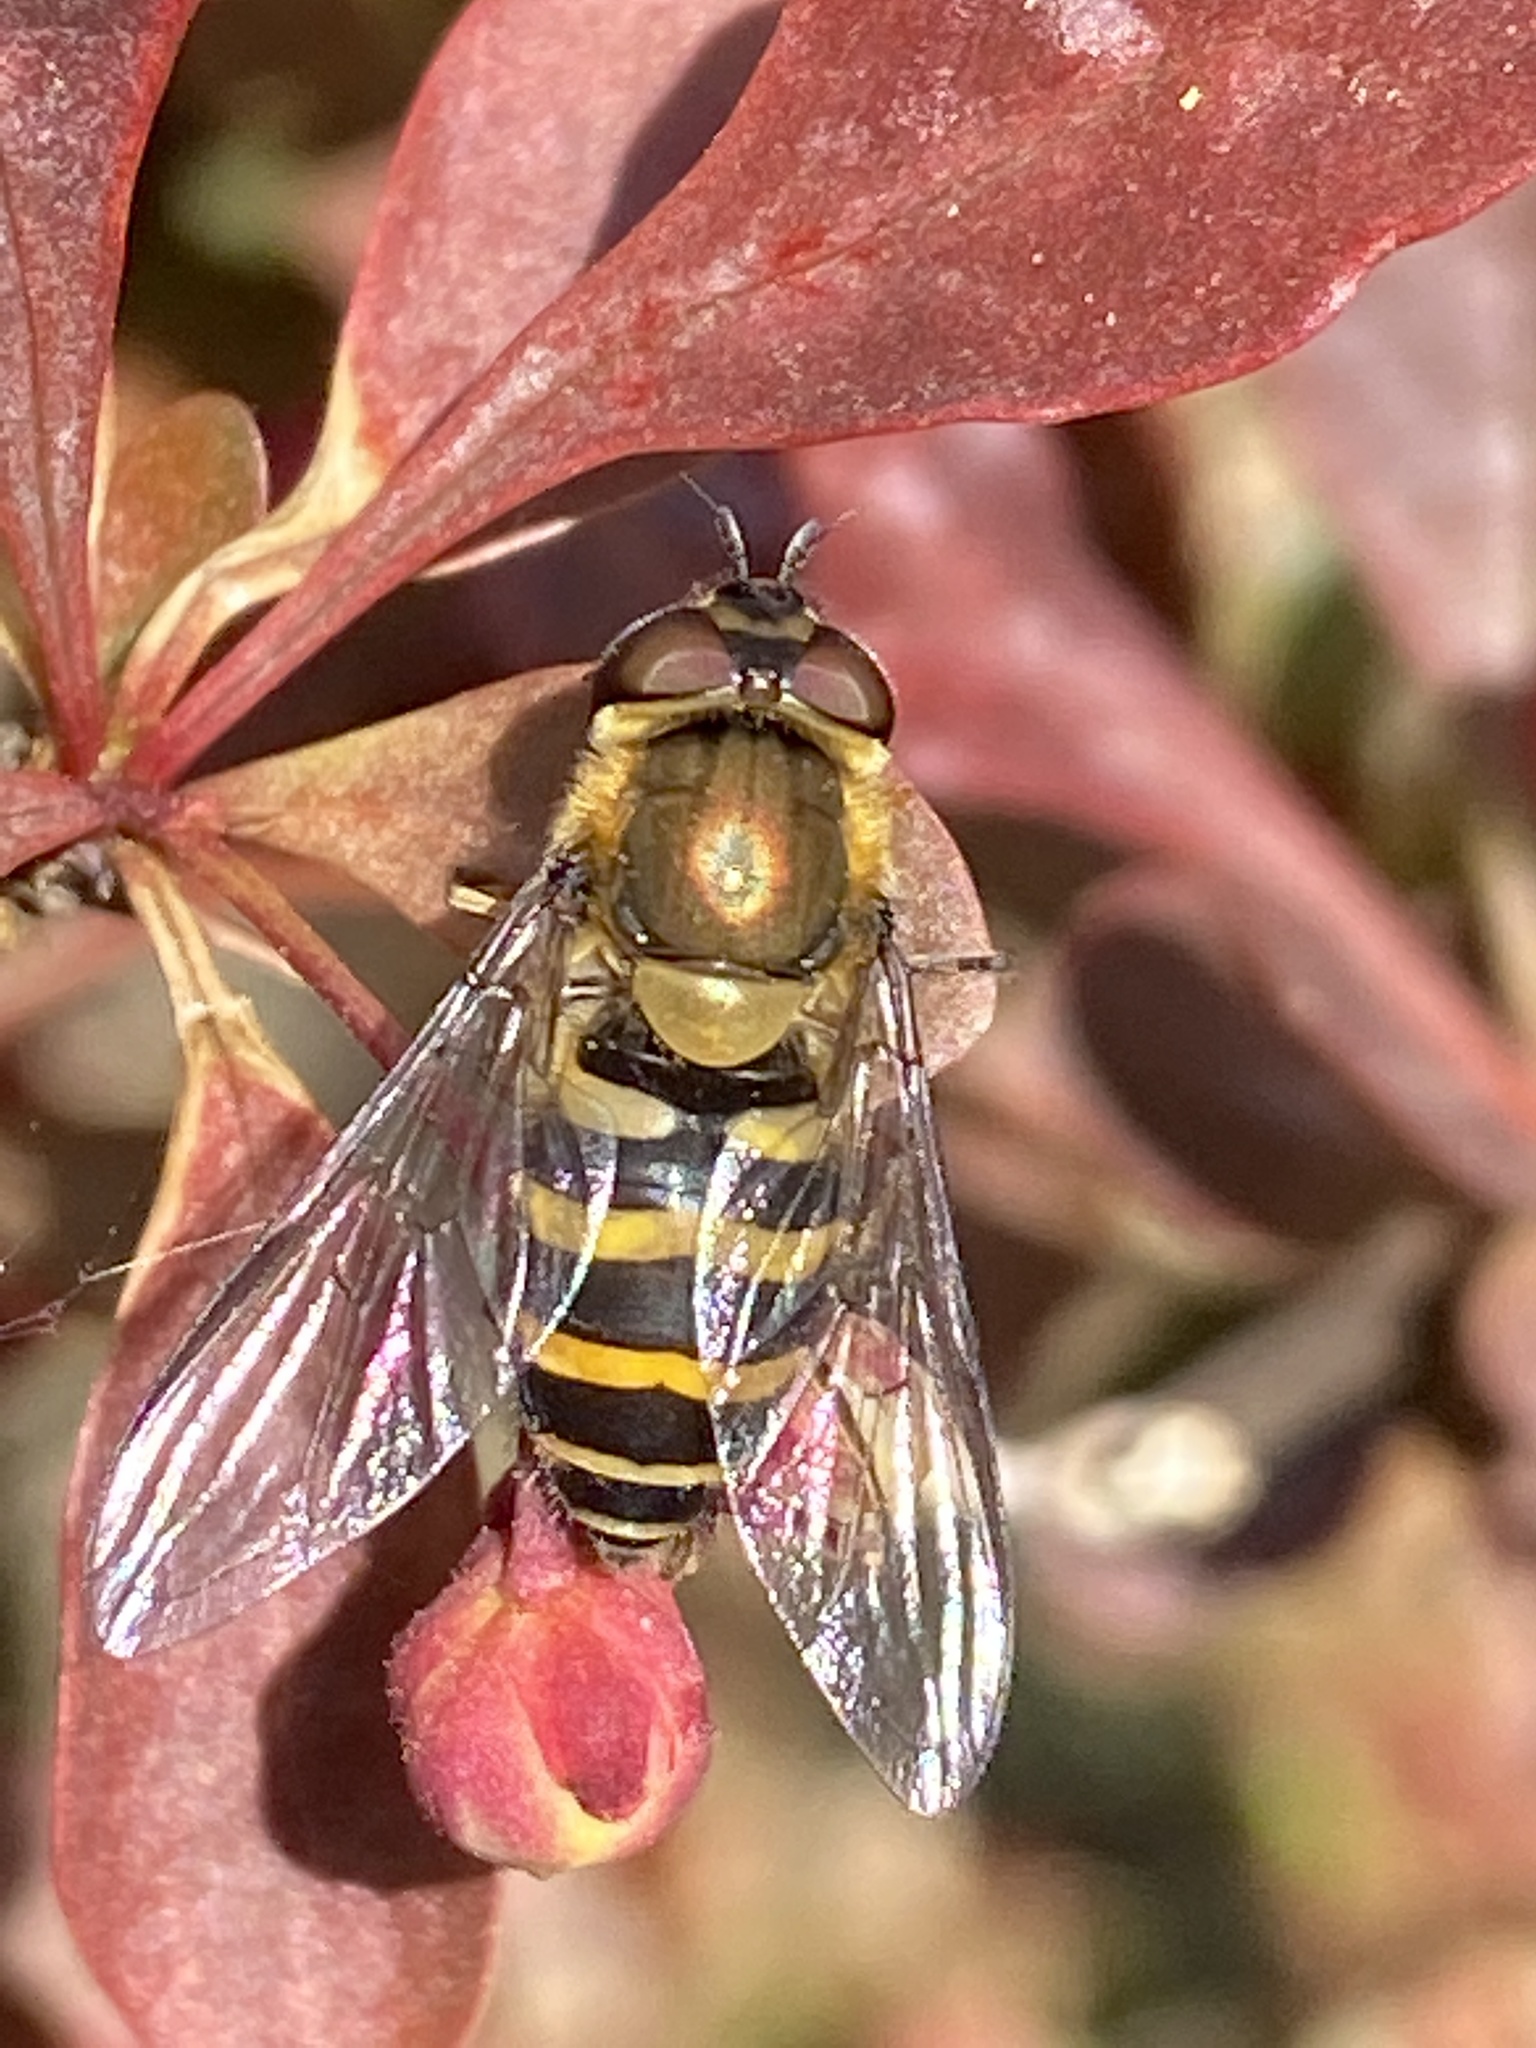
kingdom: Animalia
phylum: Arthropoda
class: Insecta
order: Diptera
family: Syrphidae
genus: Syrphus
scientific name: Syrphus torvus
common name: Hairy-eyed flower fly
